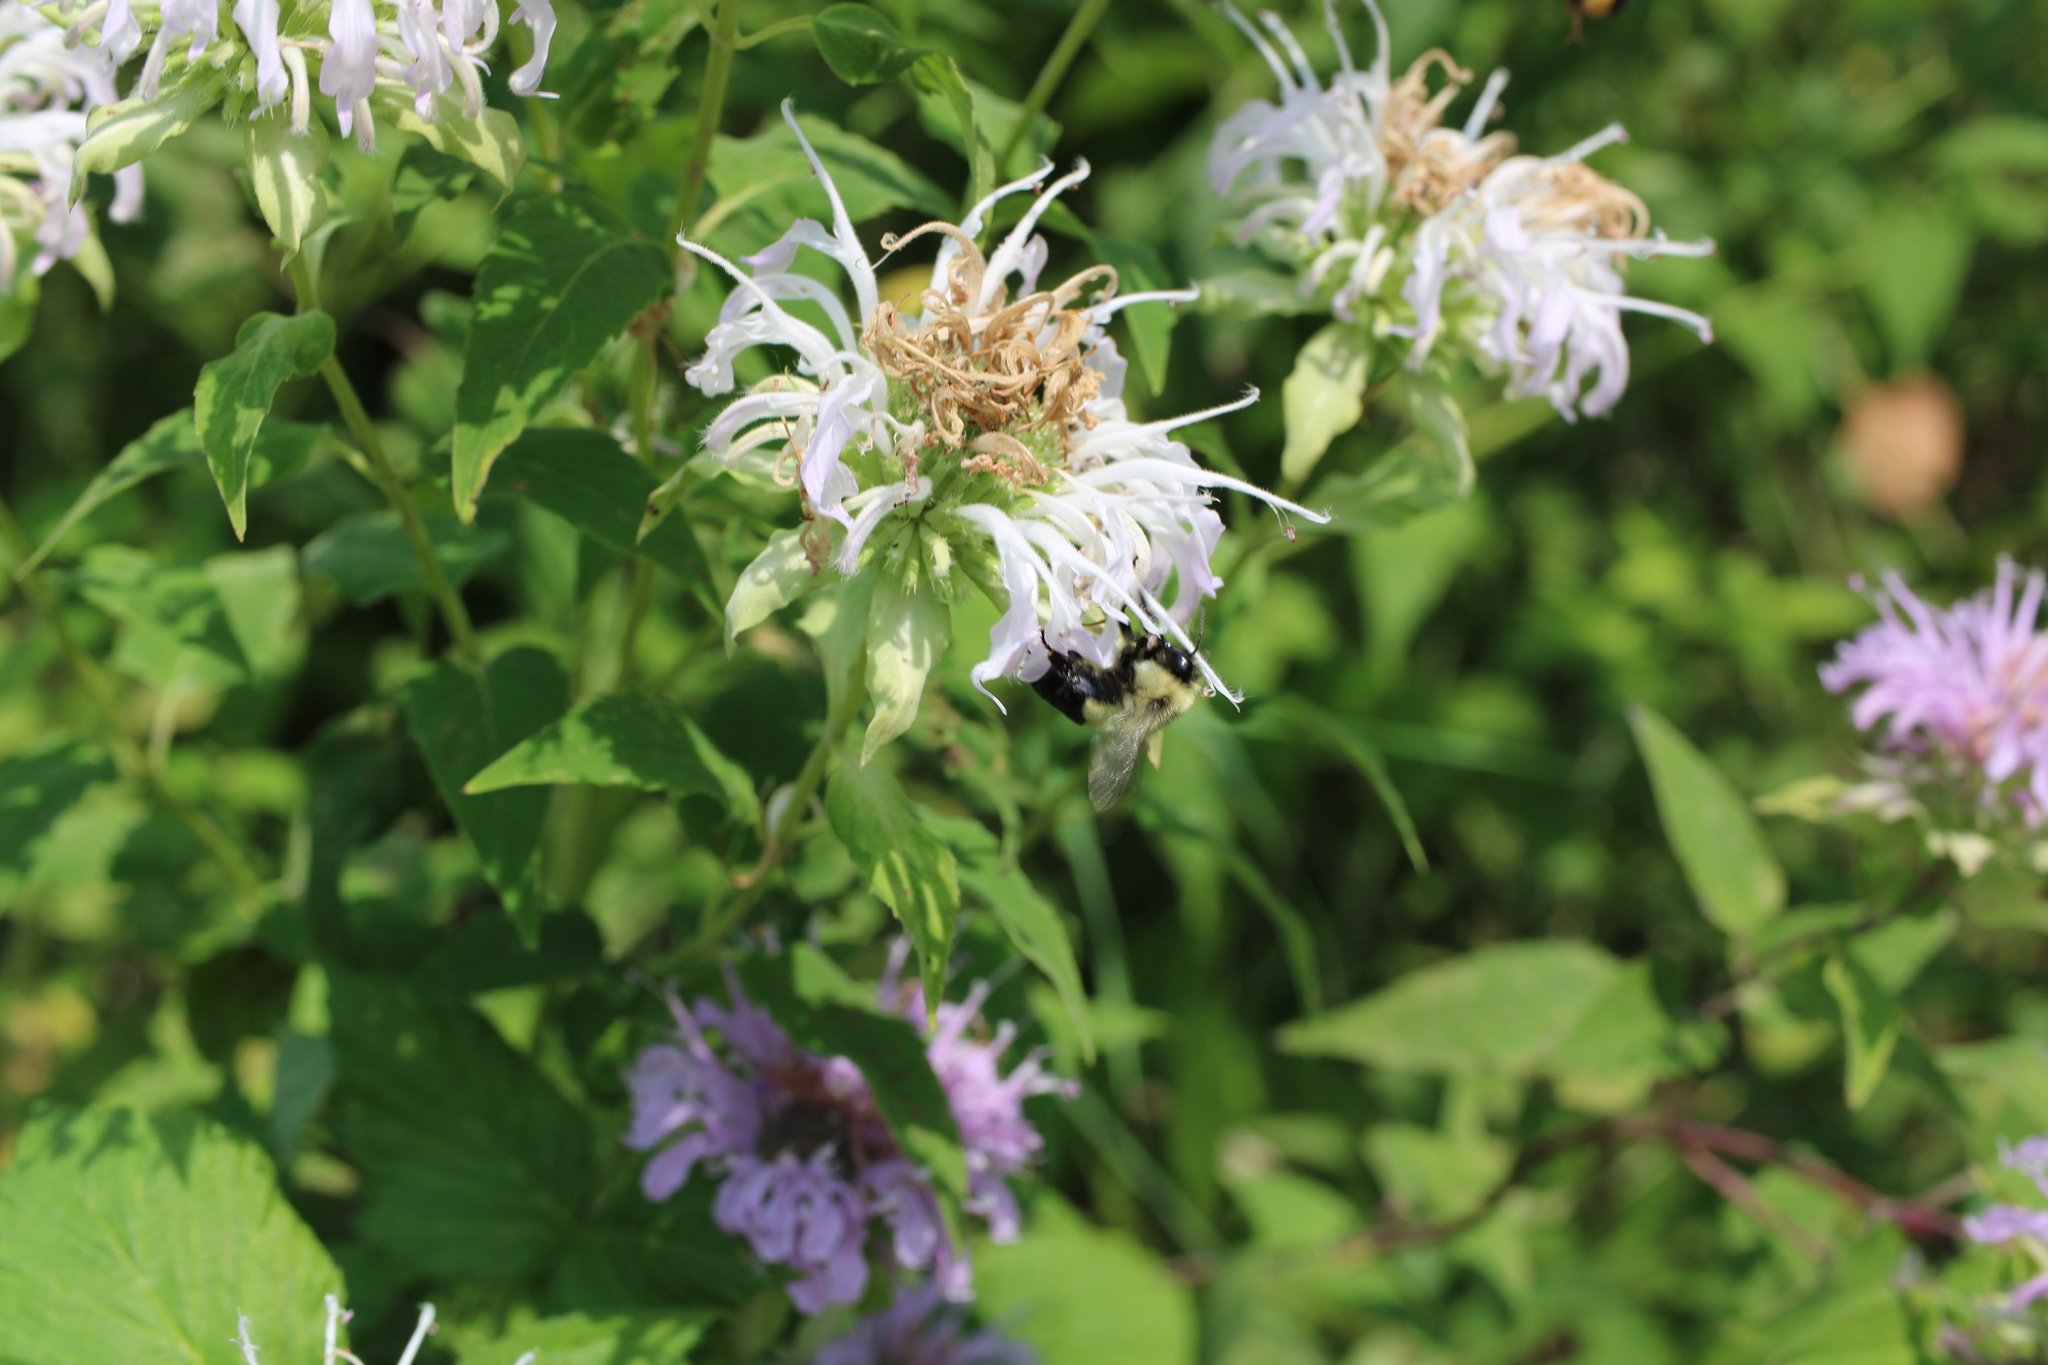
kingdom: Animalia
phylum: Arthropoda
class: Insecta
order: Hymenoptera
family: Apidae
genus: Bombus
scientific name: Bombus impatiens
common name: Common eastern bumble bee
